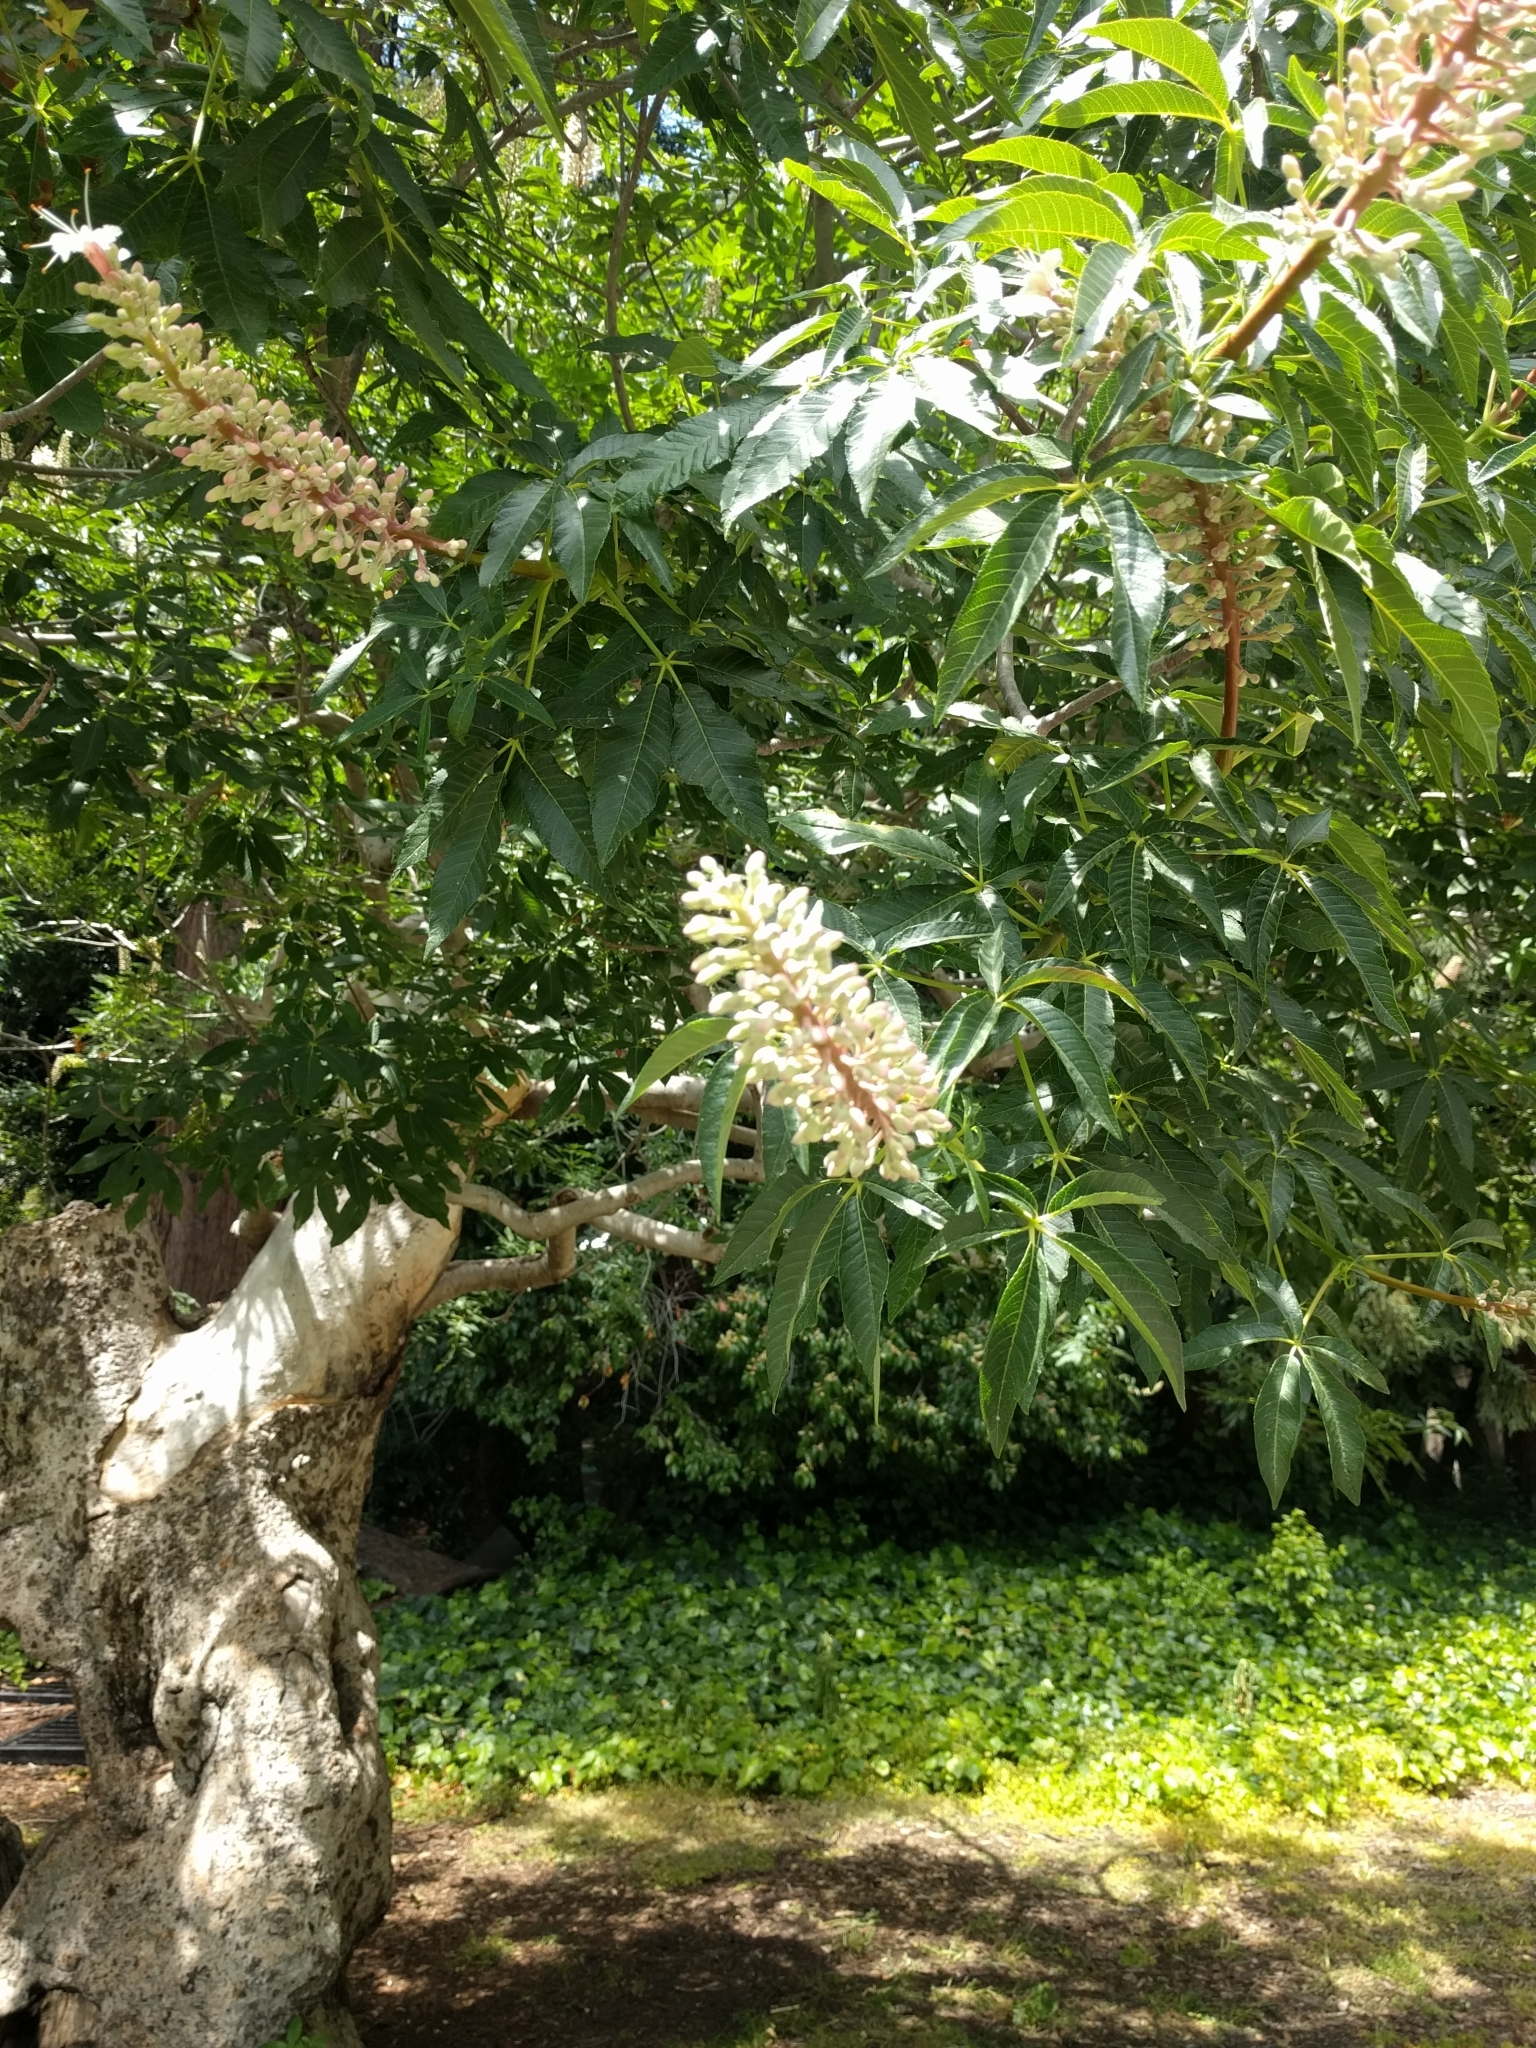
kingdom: Plantae
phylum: Tracheophyta
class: Magnoliopsida
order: Sapindales
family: Sapindaceae
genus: Aesculus
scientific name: Aesculus californica
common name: California buckeye
